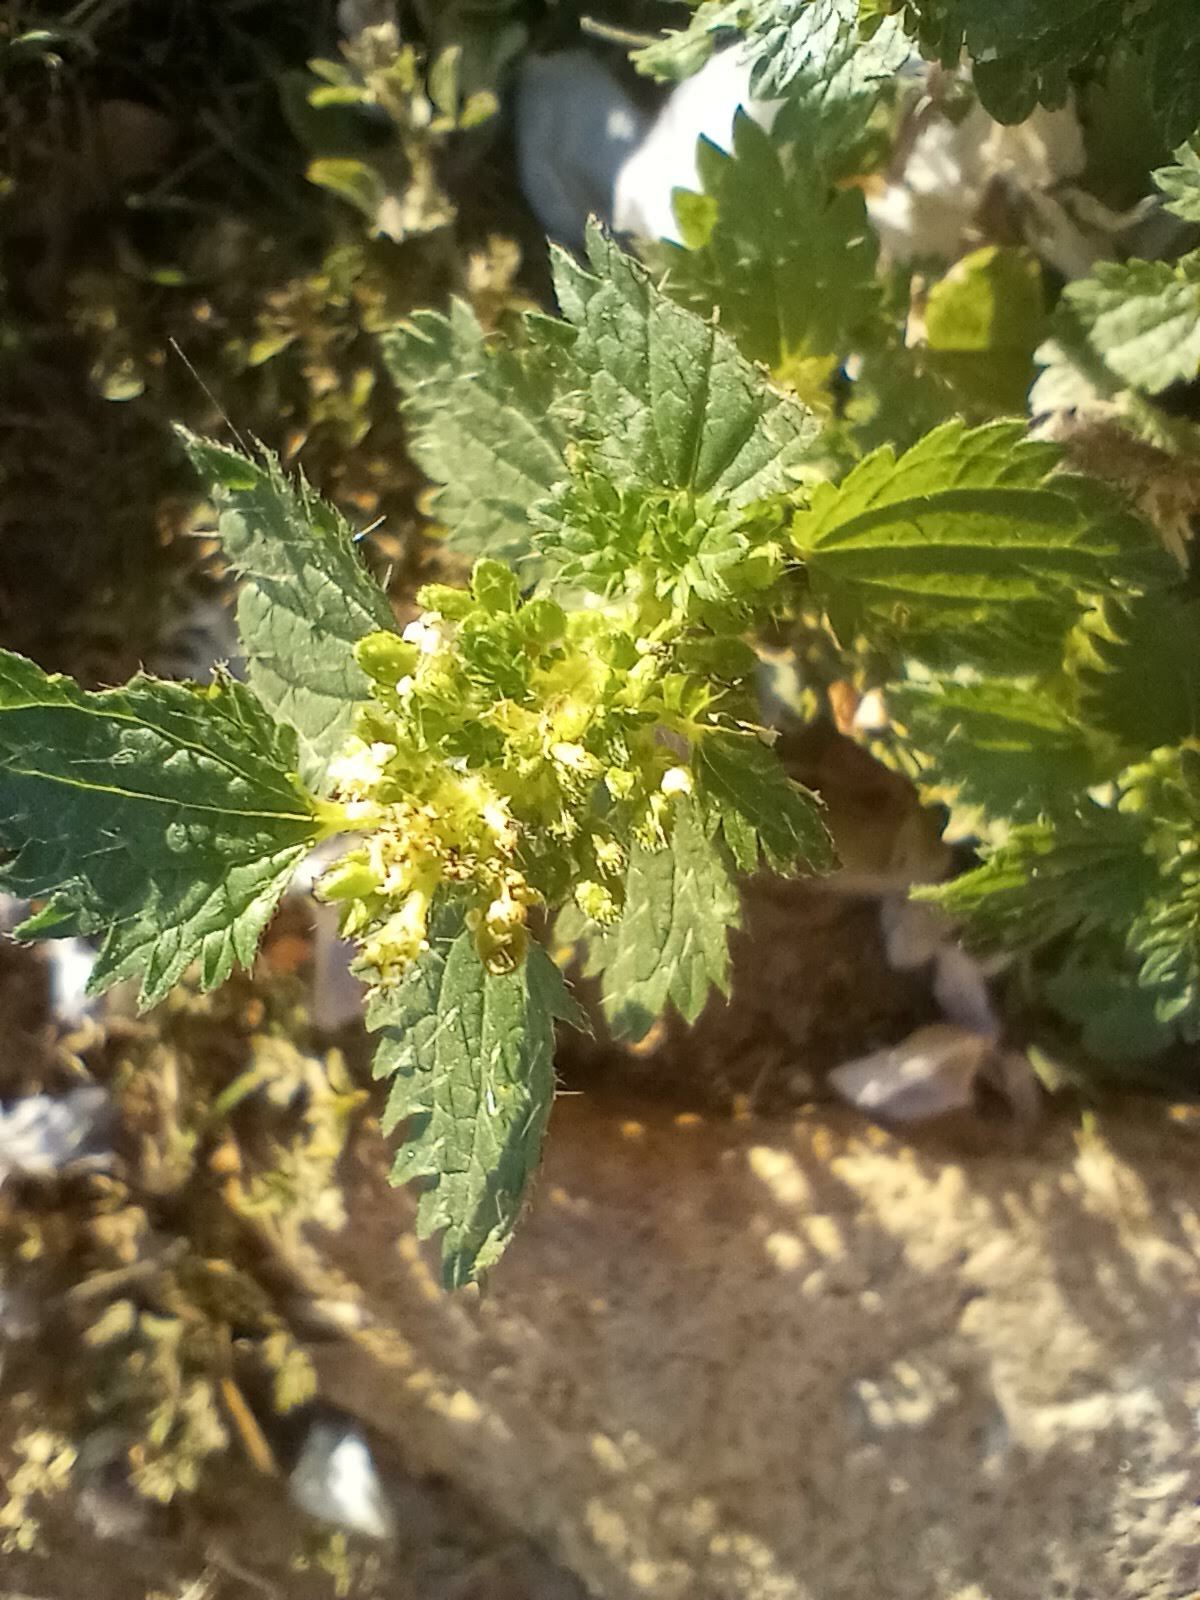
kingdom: Plantae
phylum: Tracheophyta
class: Magnoliopsida
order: Rosales
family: Urticaceae
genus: Urtica
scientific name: Urtica urens
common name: Dwarf nettle
